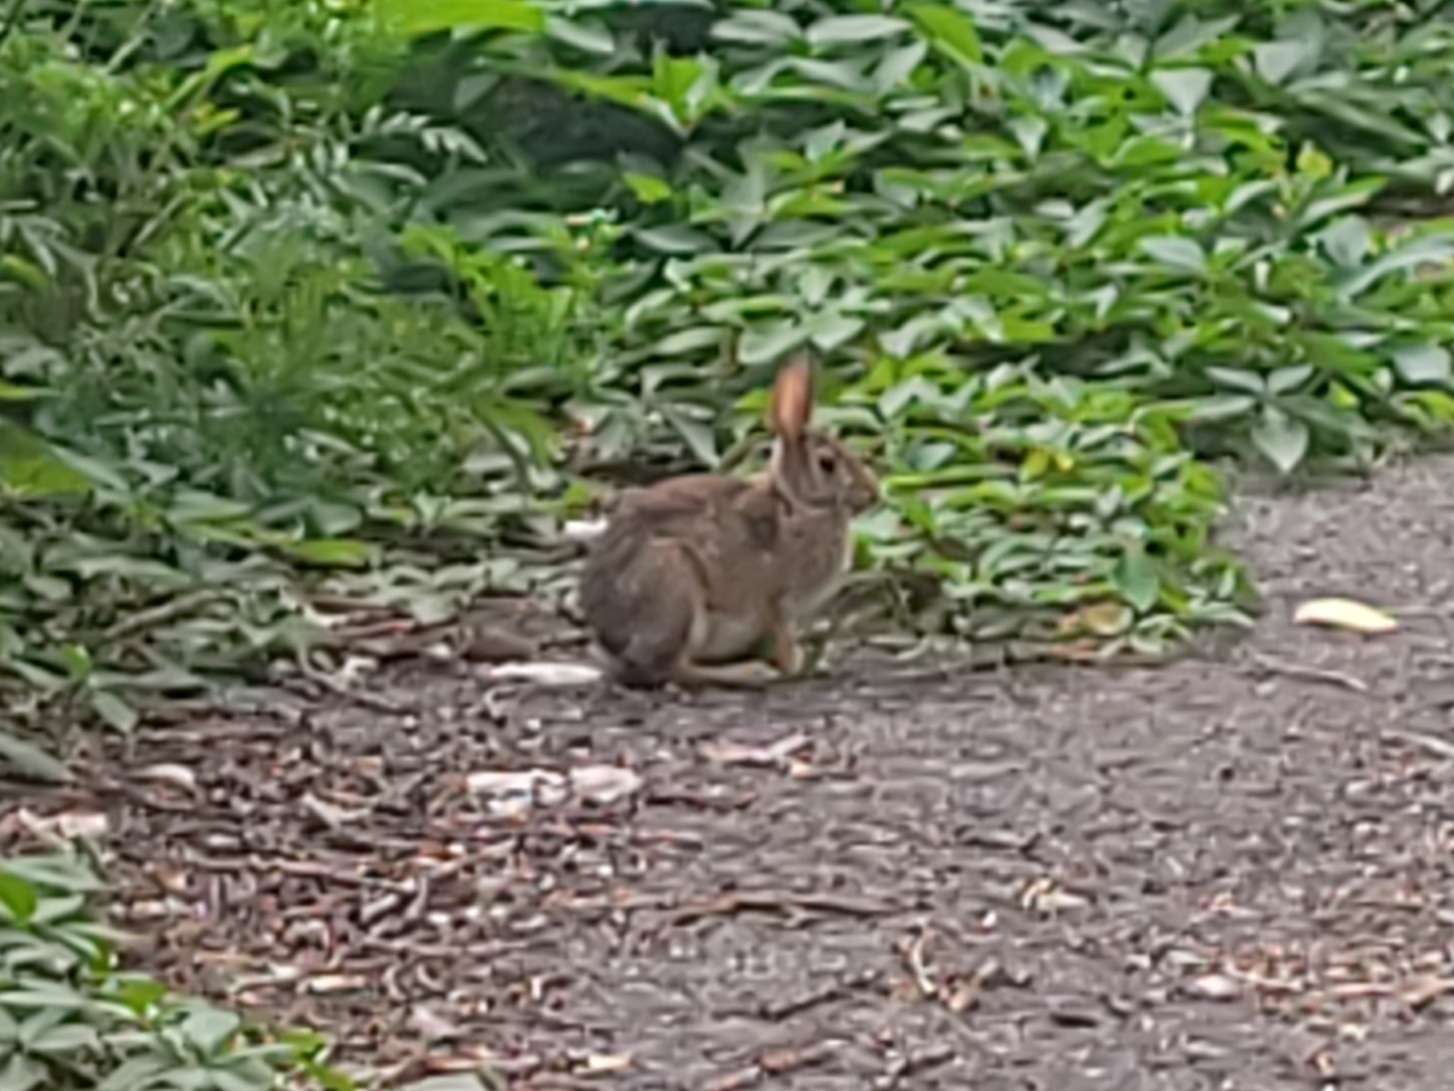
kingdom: Animalia
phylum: Chordata
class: Mammalia
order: Lagomorpha
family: Leporidae
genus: Sylvilagus
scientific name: Sylvilagus floridanus
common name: Eastern cottontail
